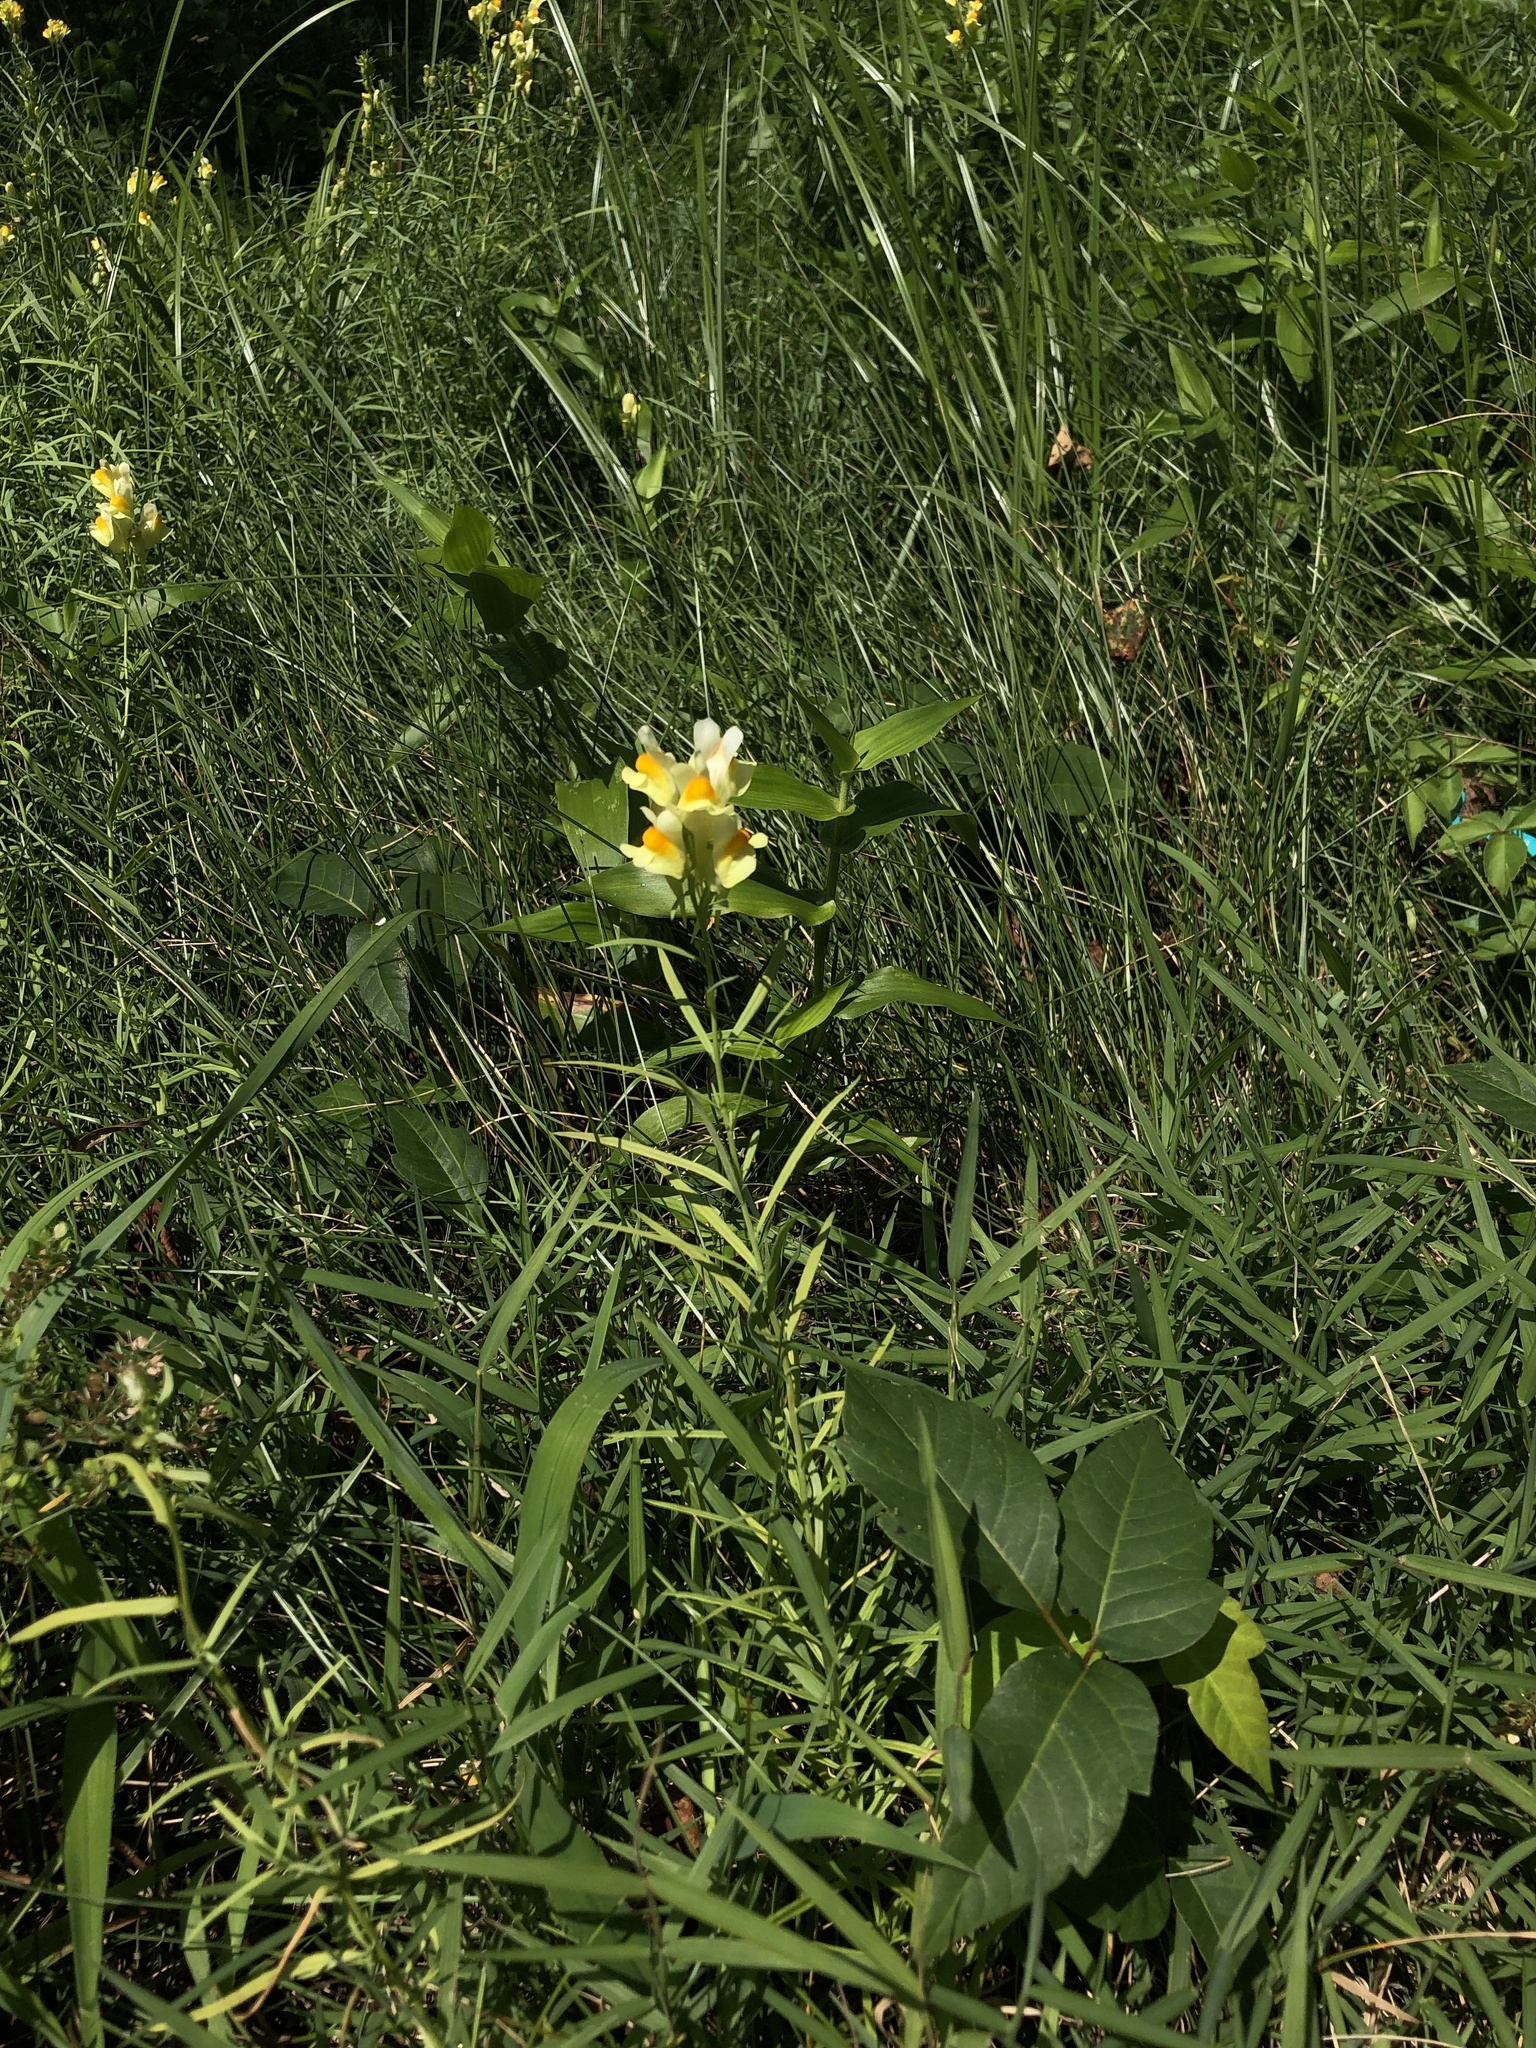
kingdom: Plantae
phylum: Tracheophyta
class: Magnoliopsida
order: Lamiales
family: Plantaginaceae
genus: Linaria
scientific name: Linaria vulgaris
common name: Butter and eggs
